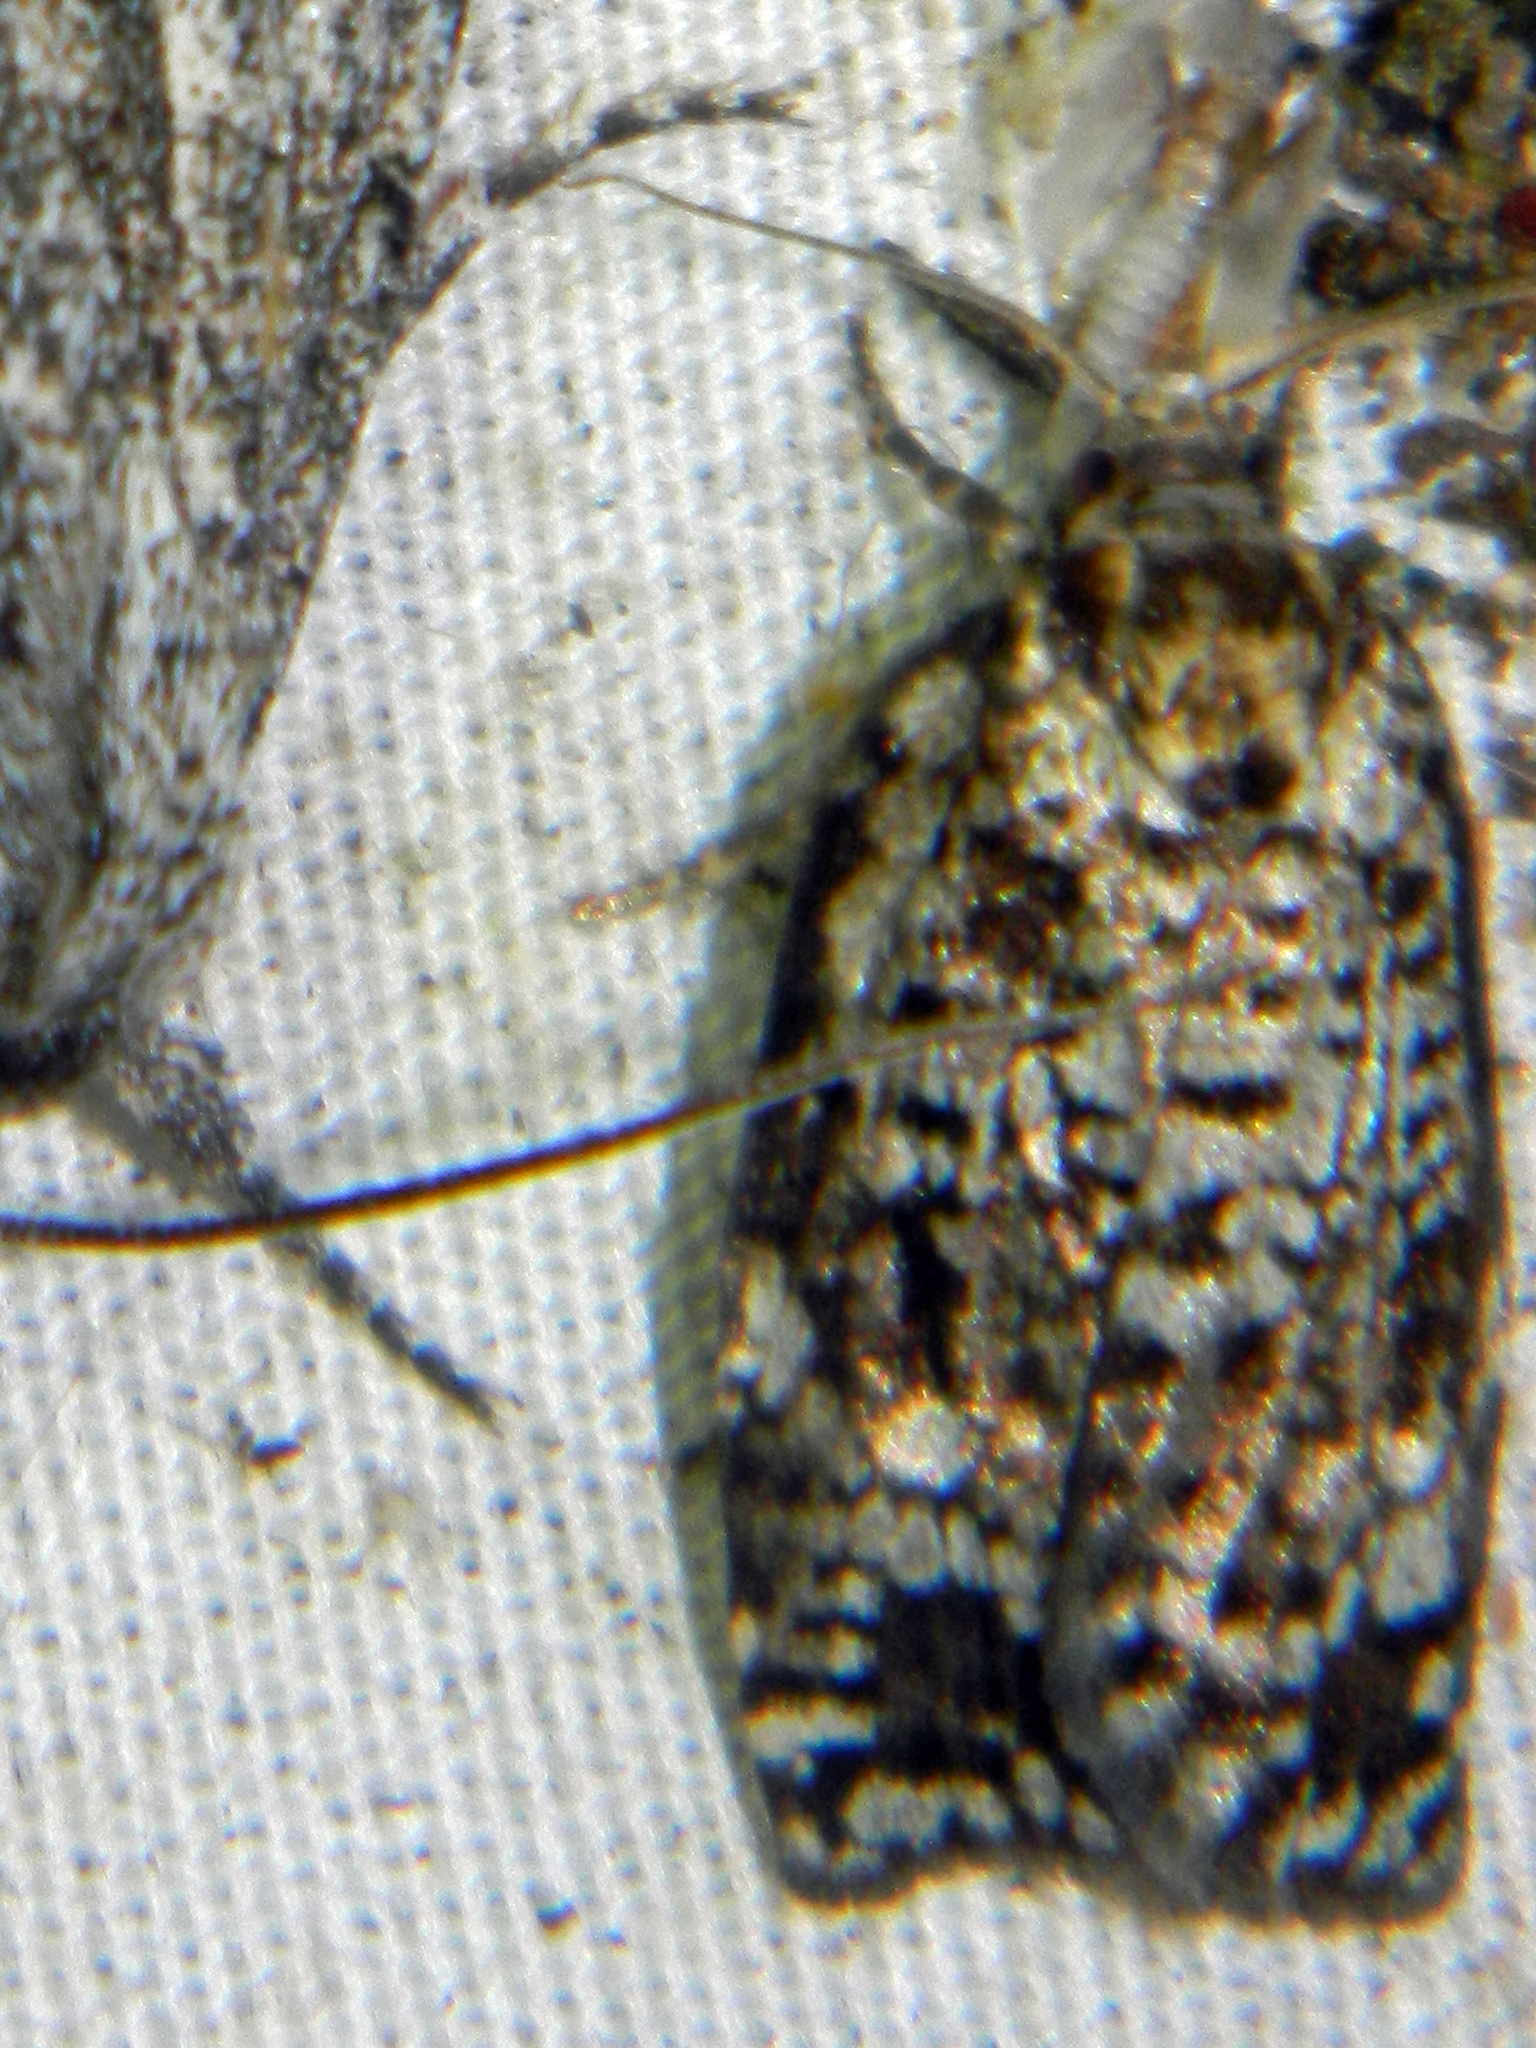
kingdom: Animalia
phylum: Arthropoda
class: Insecta
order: Lepidoptera
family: Tortricidae
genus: Choristoneura
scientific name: Choristoneura fumiferana
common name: Spruce budworm
